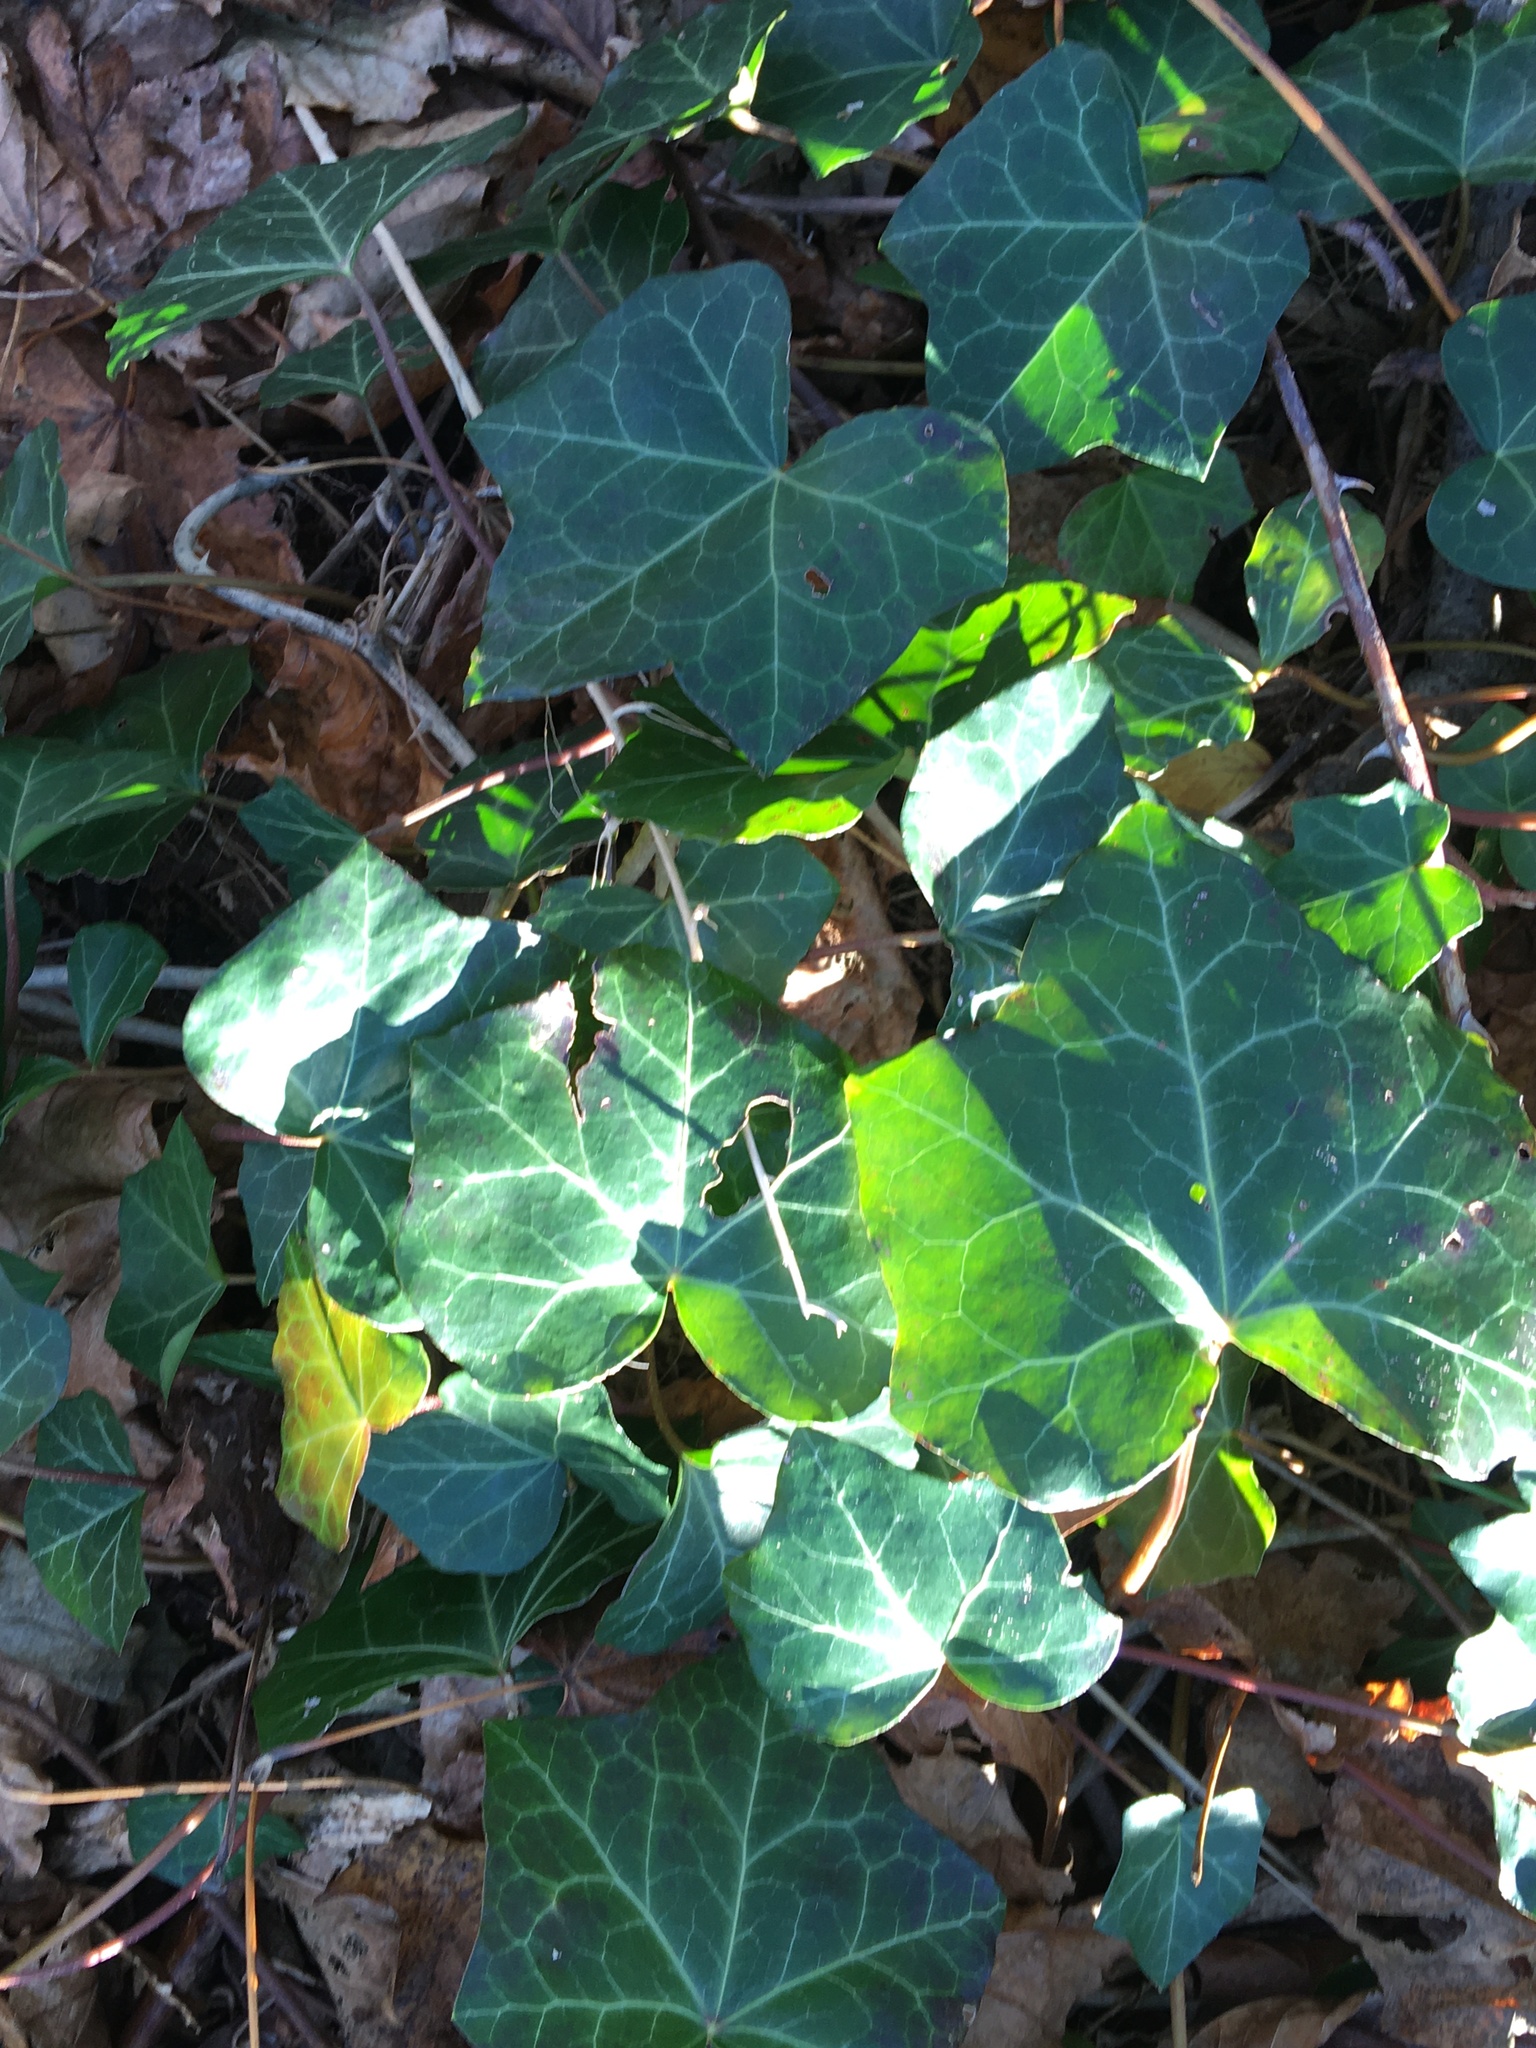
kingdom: Plantae
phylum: Tracheophyta
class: Magnoliopsida
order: Apiales
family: Araliaceae
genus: Hedera
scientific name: Hedera helix
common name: Ivy
